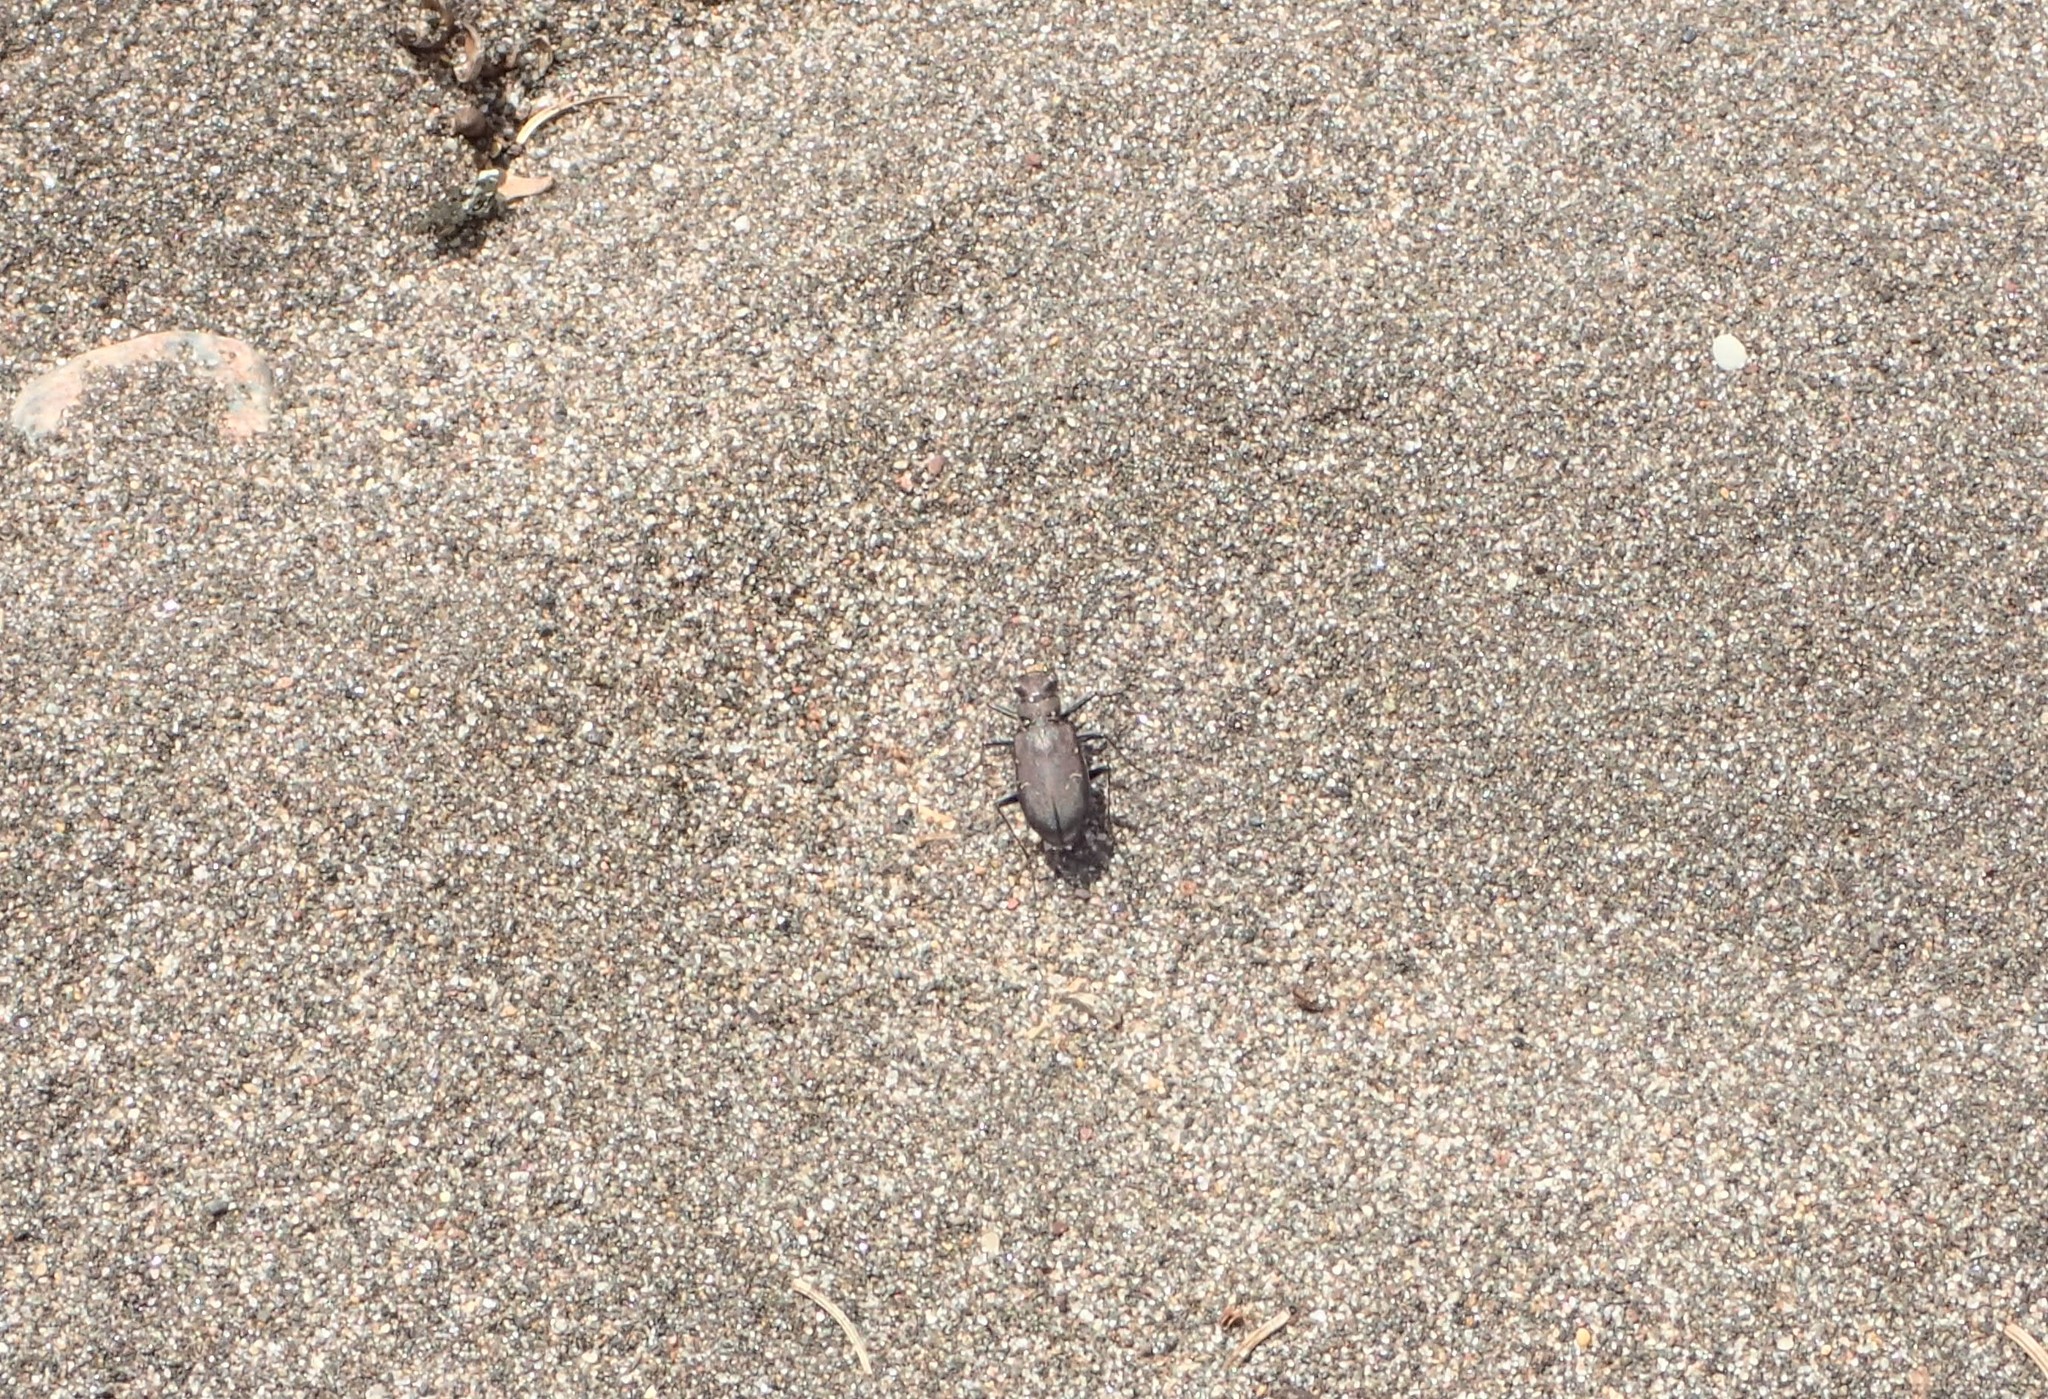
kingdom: Animalia
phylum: Arthropoda
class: Insecta
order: Coleoptera
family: Carabidae
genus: Cicindela
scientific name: Cicindela longilabris
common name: Boreal long-lipped tiger beetle
